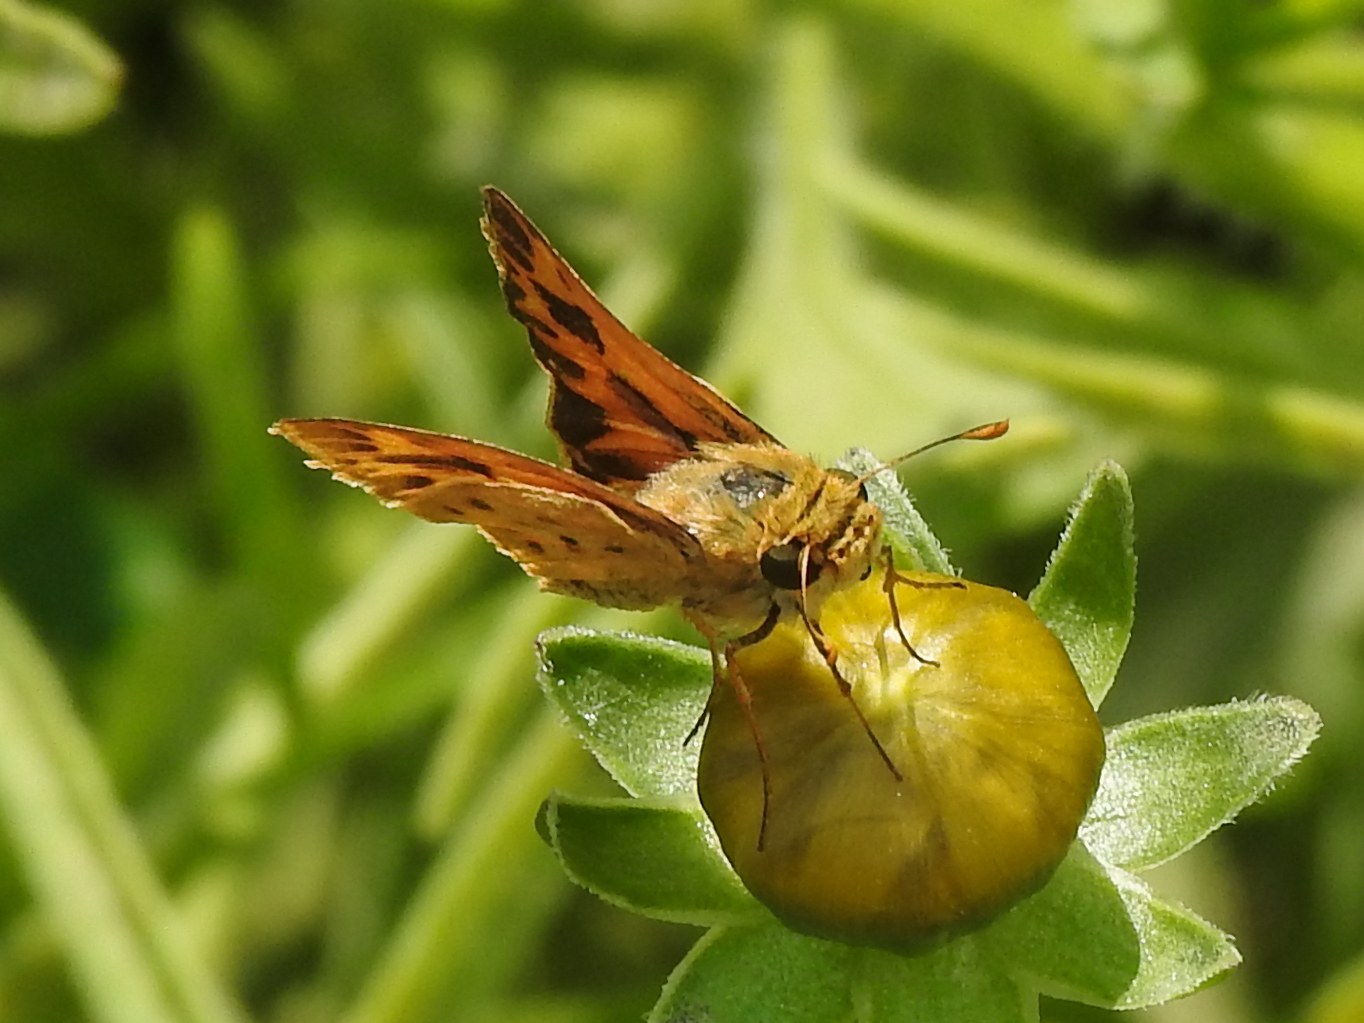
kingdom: Animalia
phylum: Arthropoda
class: Insecta
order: Lepidoptera
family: Hesperiidae
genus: Hylephila
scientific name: Hylephila phyleus
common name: Fiery skipper
